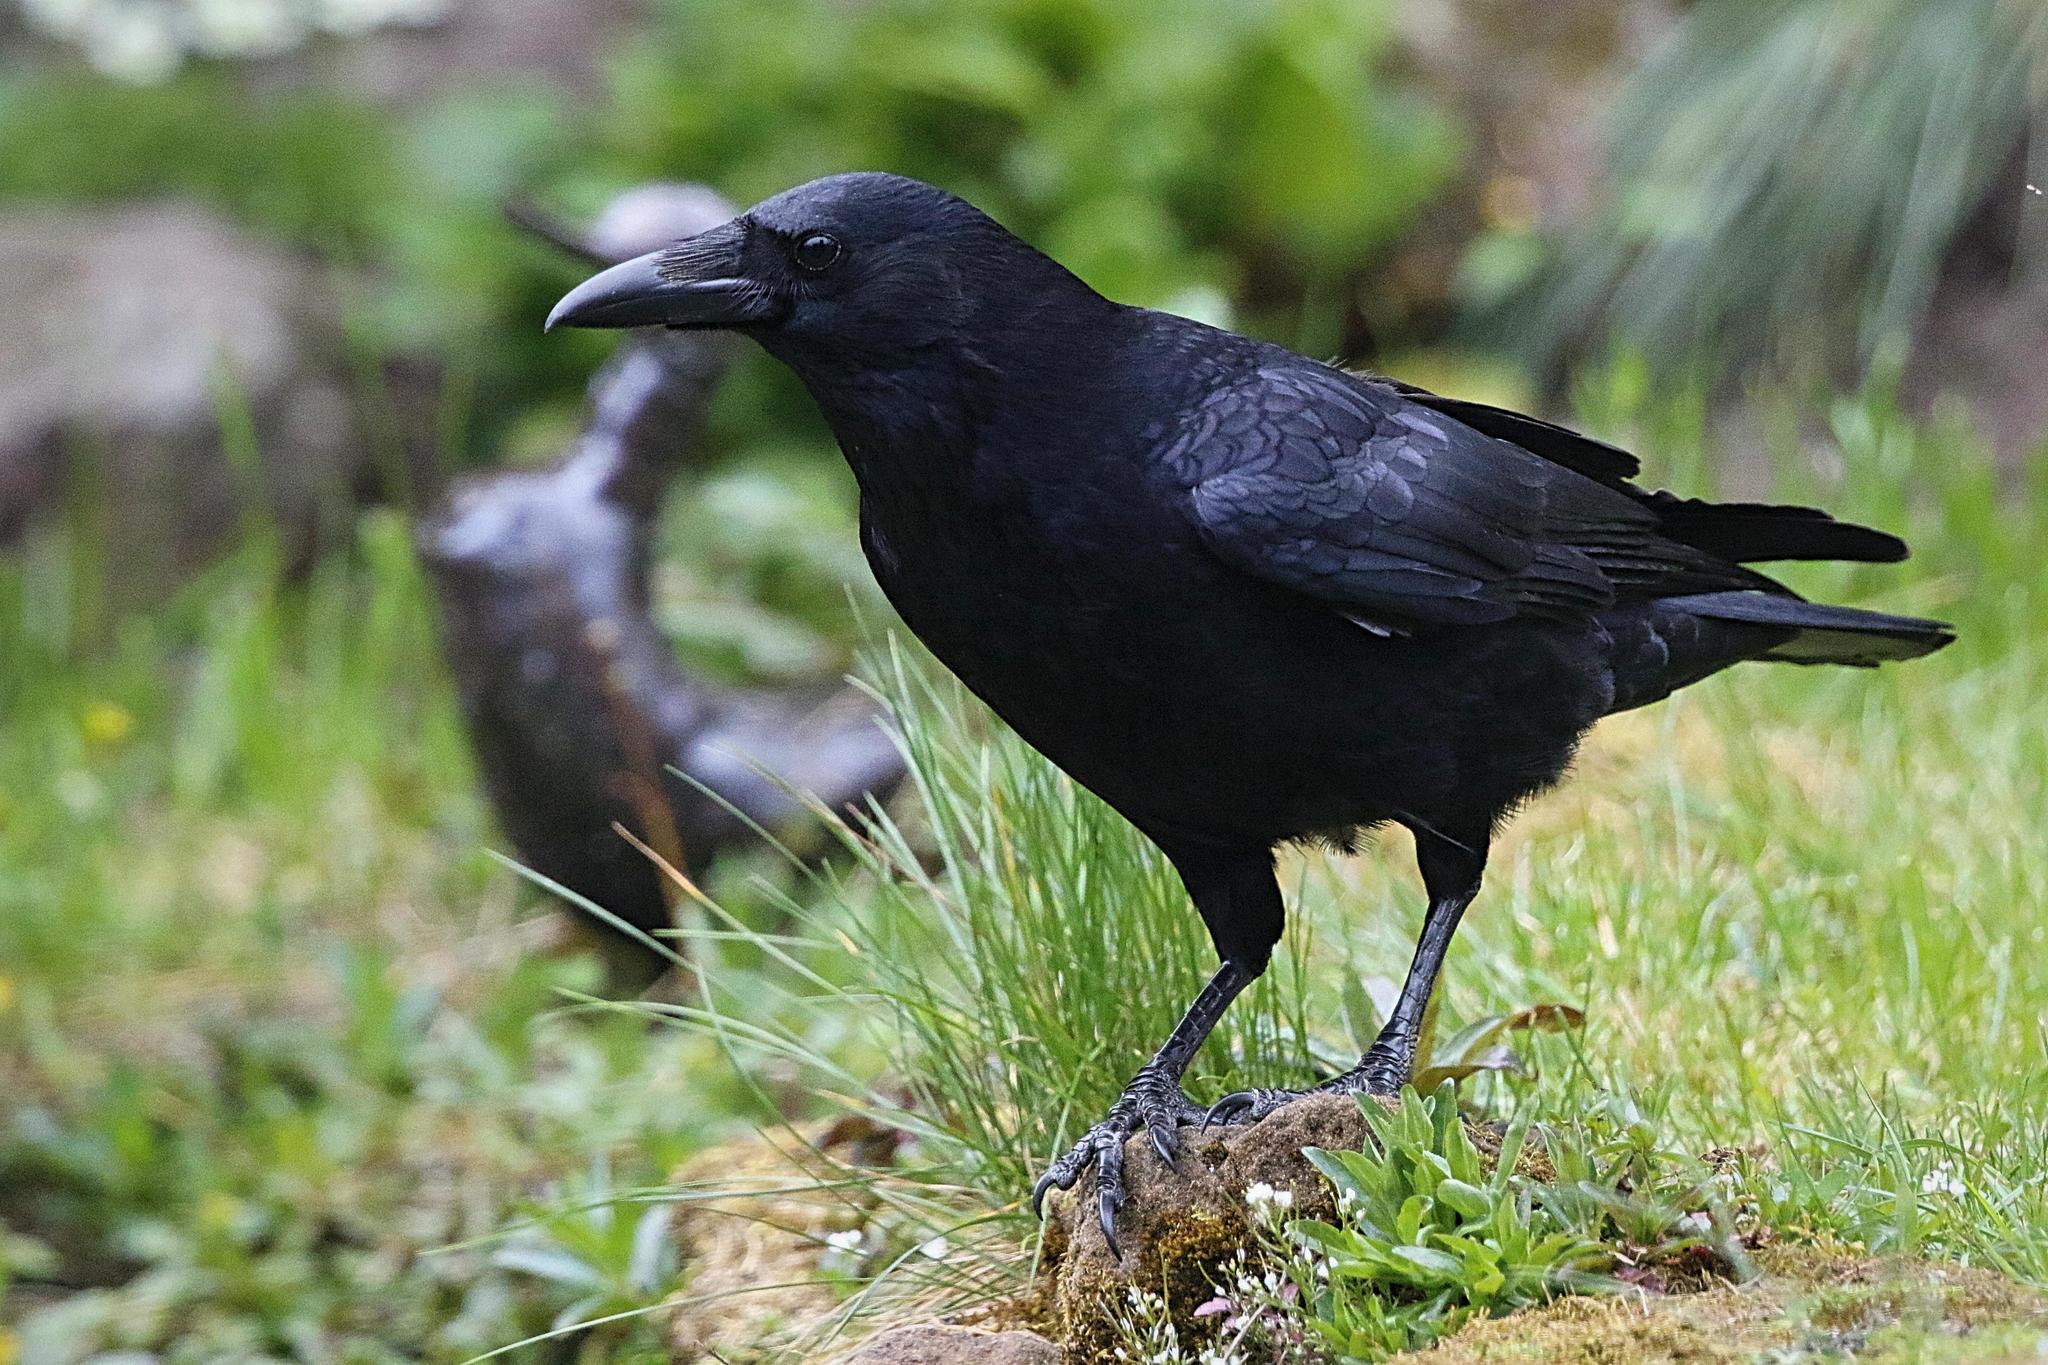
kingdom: Animalia
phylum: Chordata
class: Aves
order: Passeriformes
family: Corvidae
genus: Corvus
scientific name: Corvus corone
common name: Carrion crow
